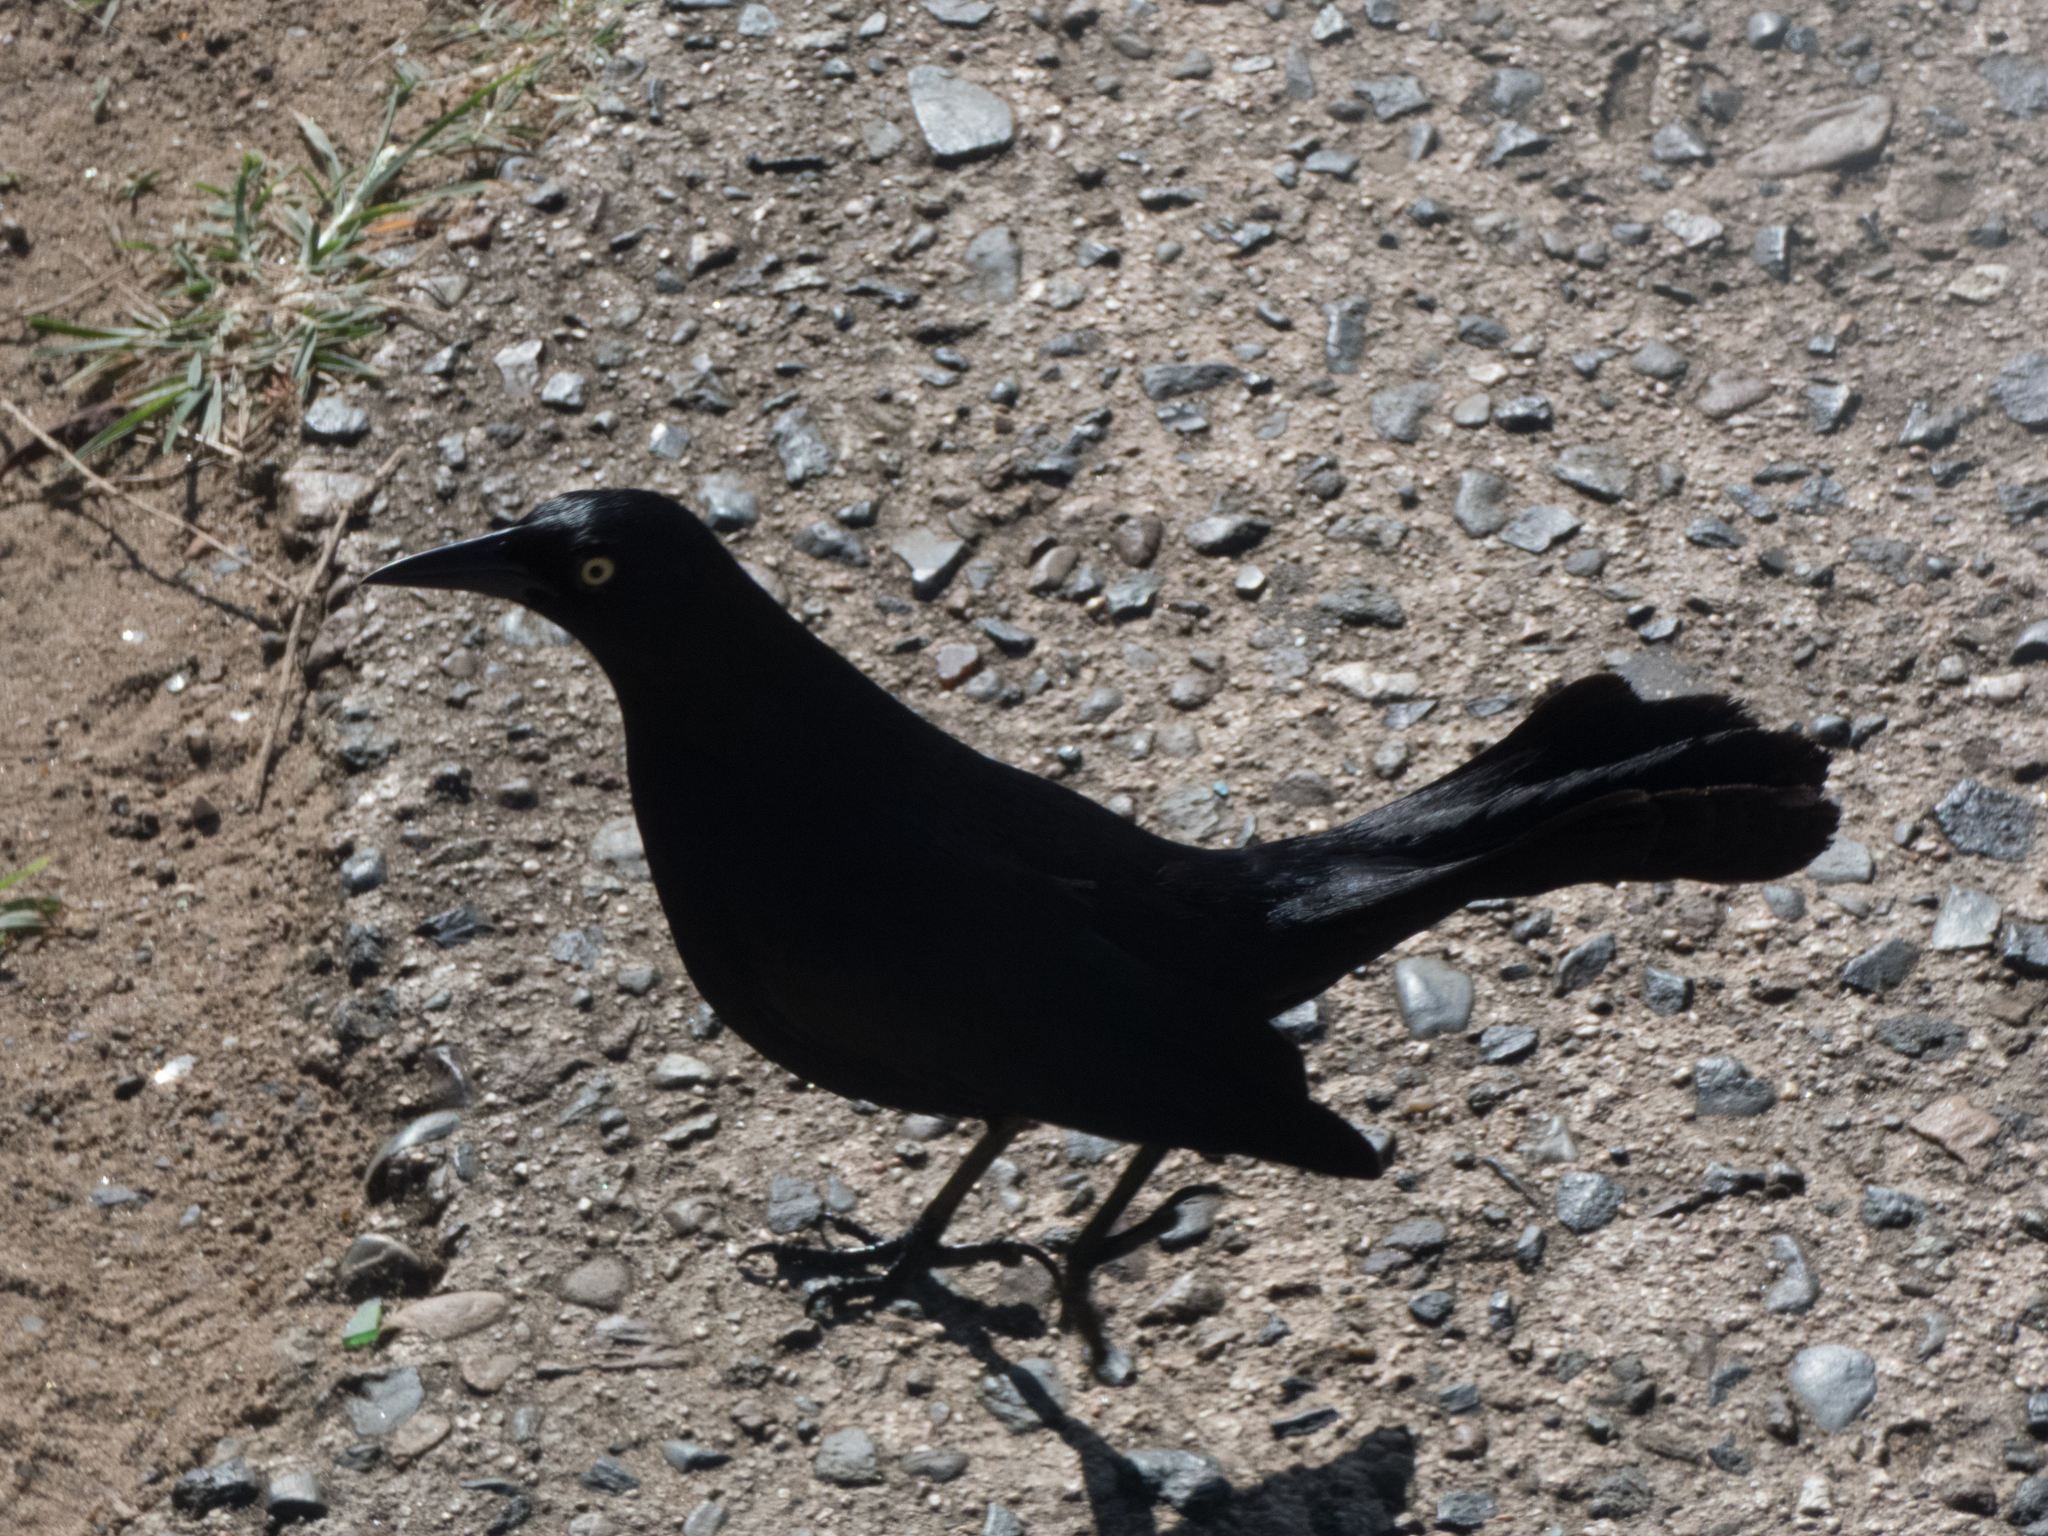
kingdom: Animalia
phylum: Chordata
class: Aves
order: Passeriformes
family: Icteridae
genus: Quiscalus
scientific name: Quiscalus niger
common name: Greater antillean grackle
